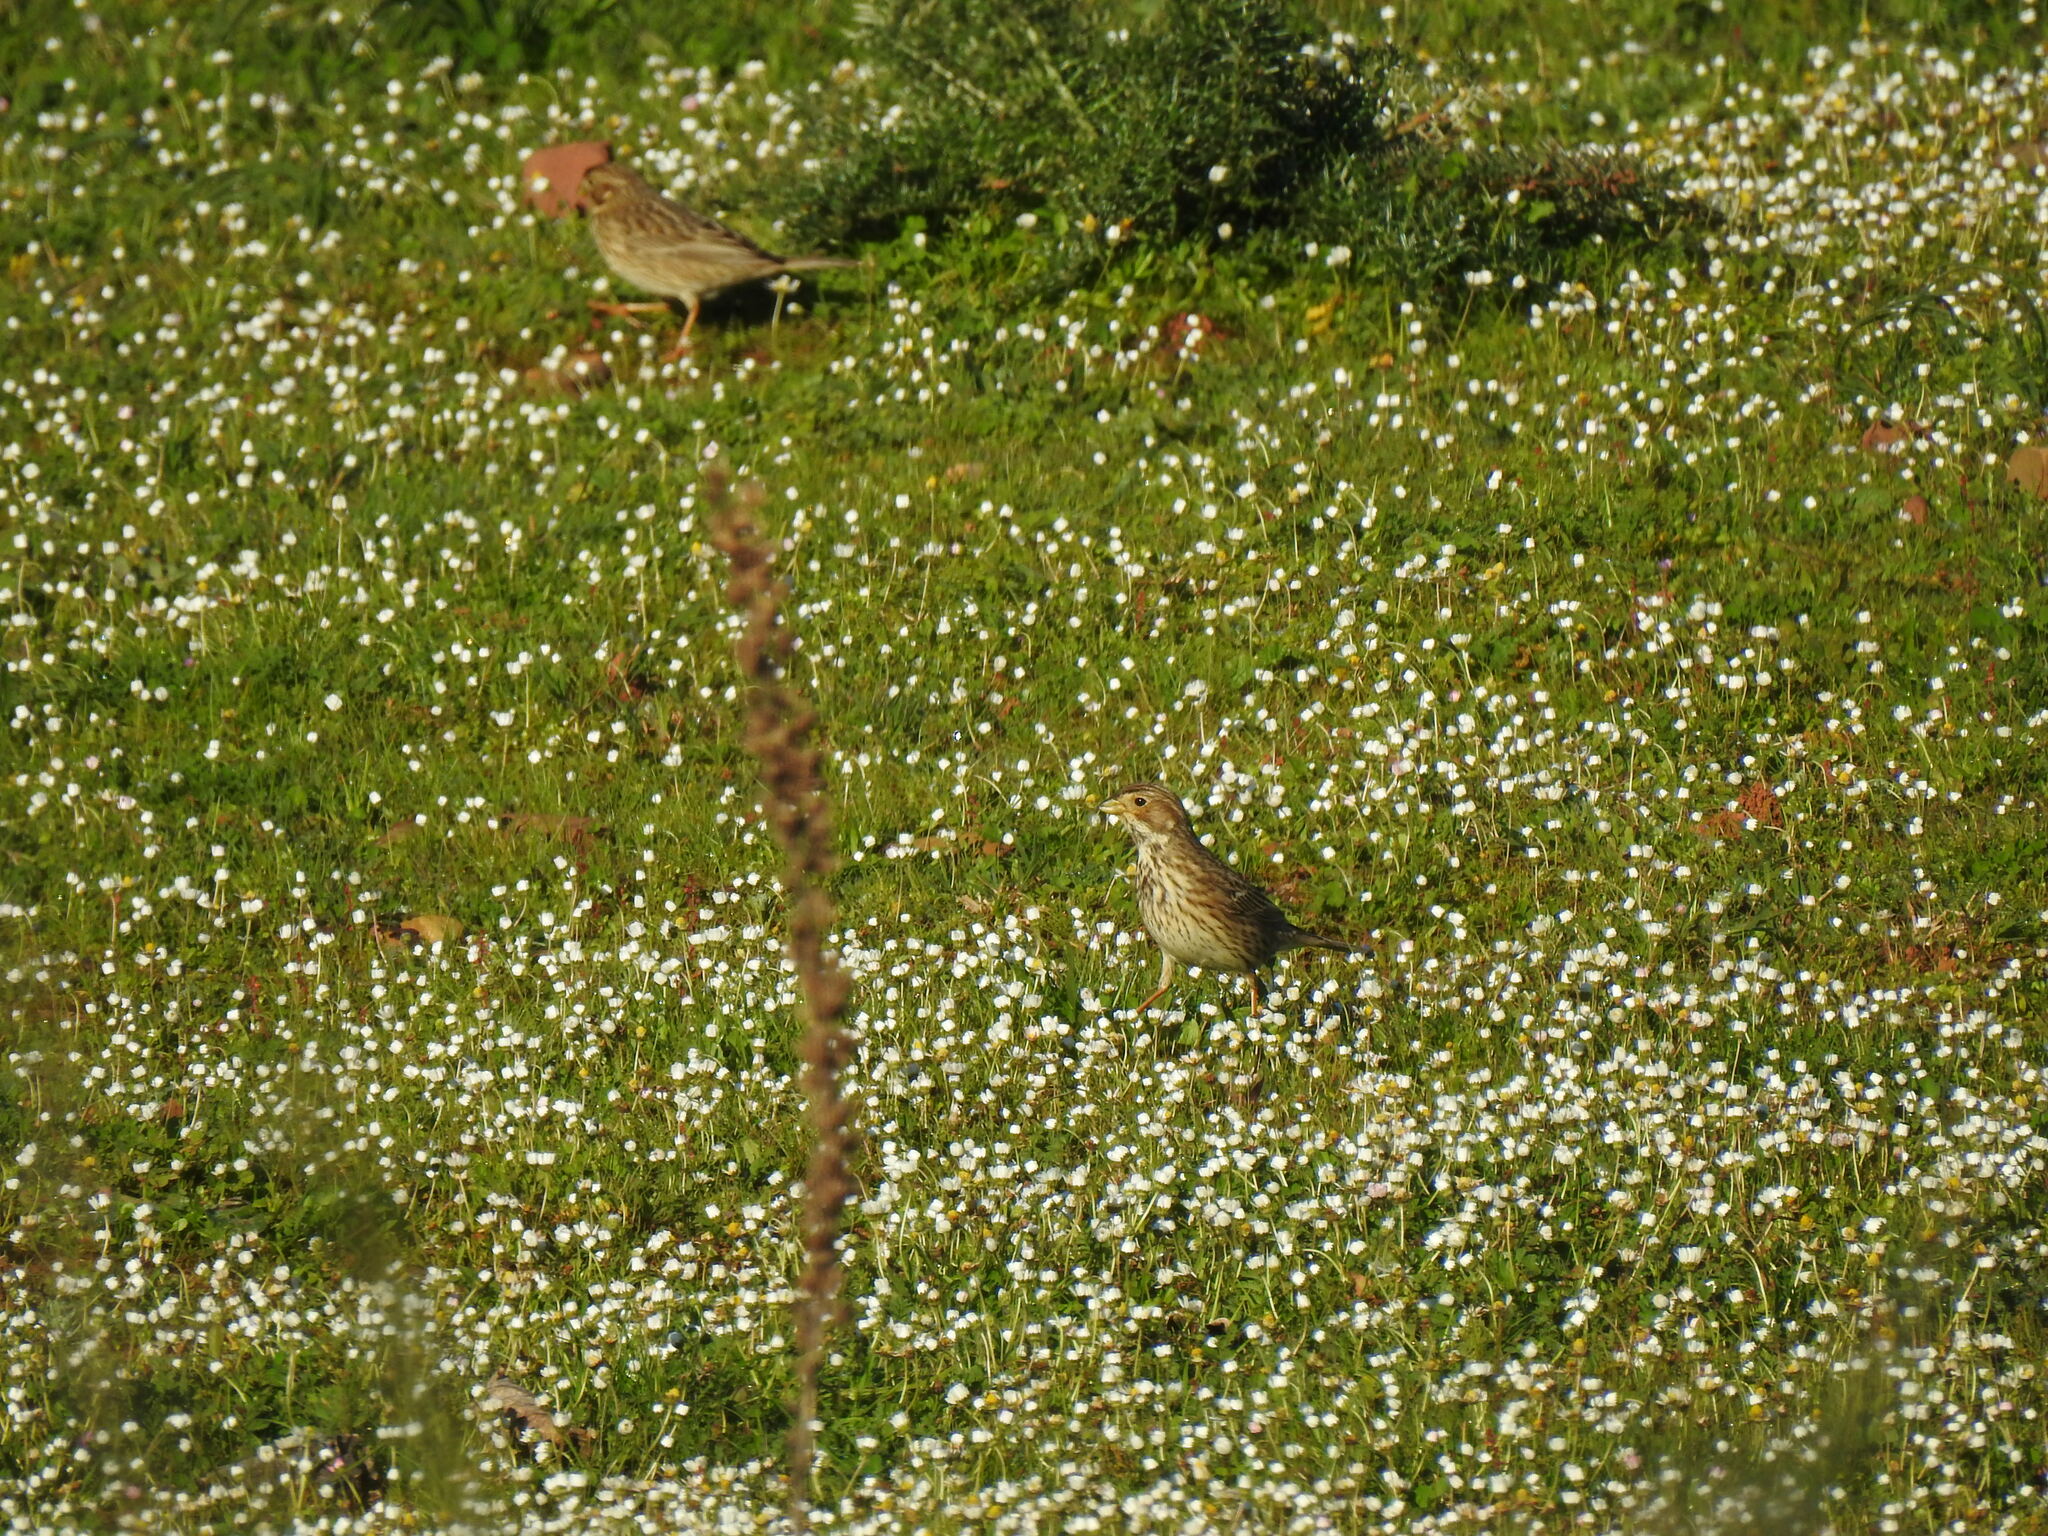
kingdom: Animalia
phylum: Chordata
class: Aves
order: Passeriformes
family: Emberizidae
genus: Emberiza
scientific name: Emberiza calandra
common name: Corn bunting
